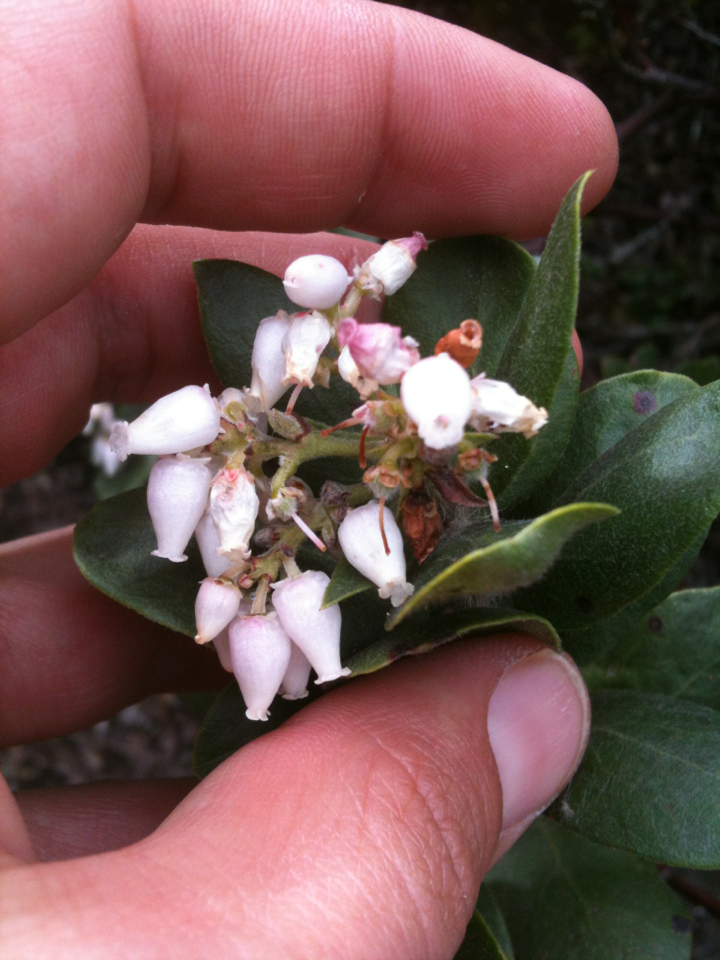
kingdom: Plantae
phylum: Tracheophyta
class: Magnoliopsida
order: Ericales
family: Ericaceae
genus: Arctostaphylos
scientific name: Arctostaphylos pallida
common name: Pallid manzanita
